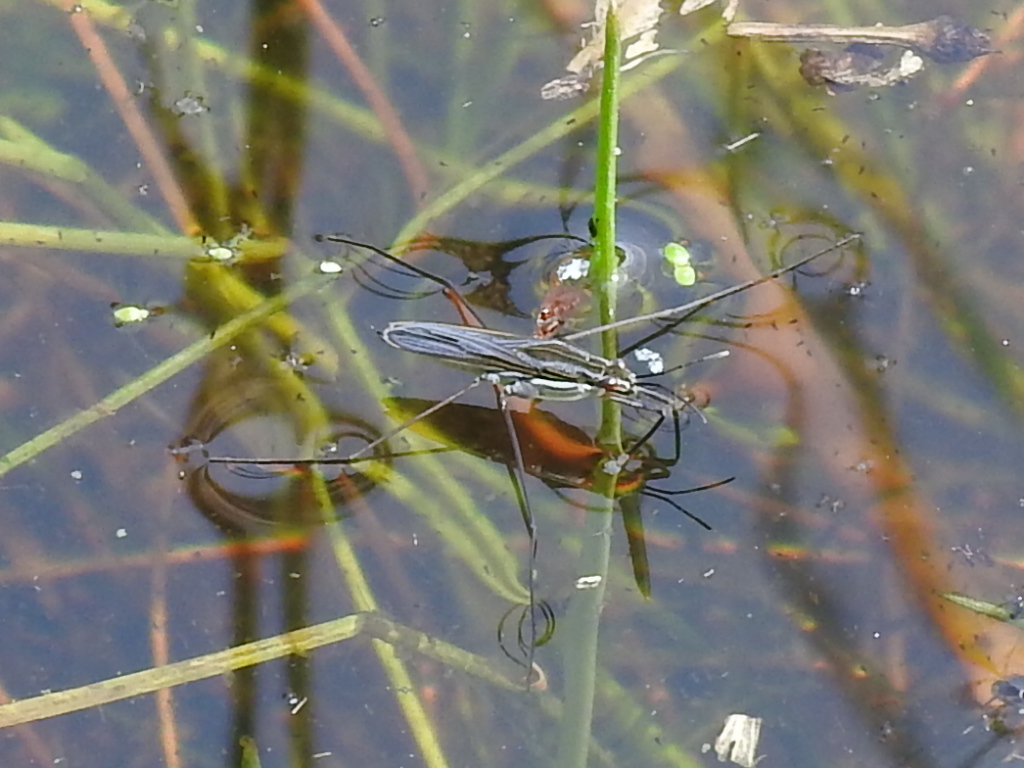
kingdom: Animalia
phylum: Arthropoda
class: Insecta
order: Hemiptera
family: Gerridae
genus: Gerris
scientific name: Gerris
